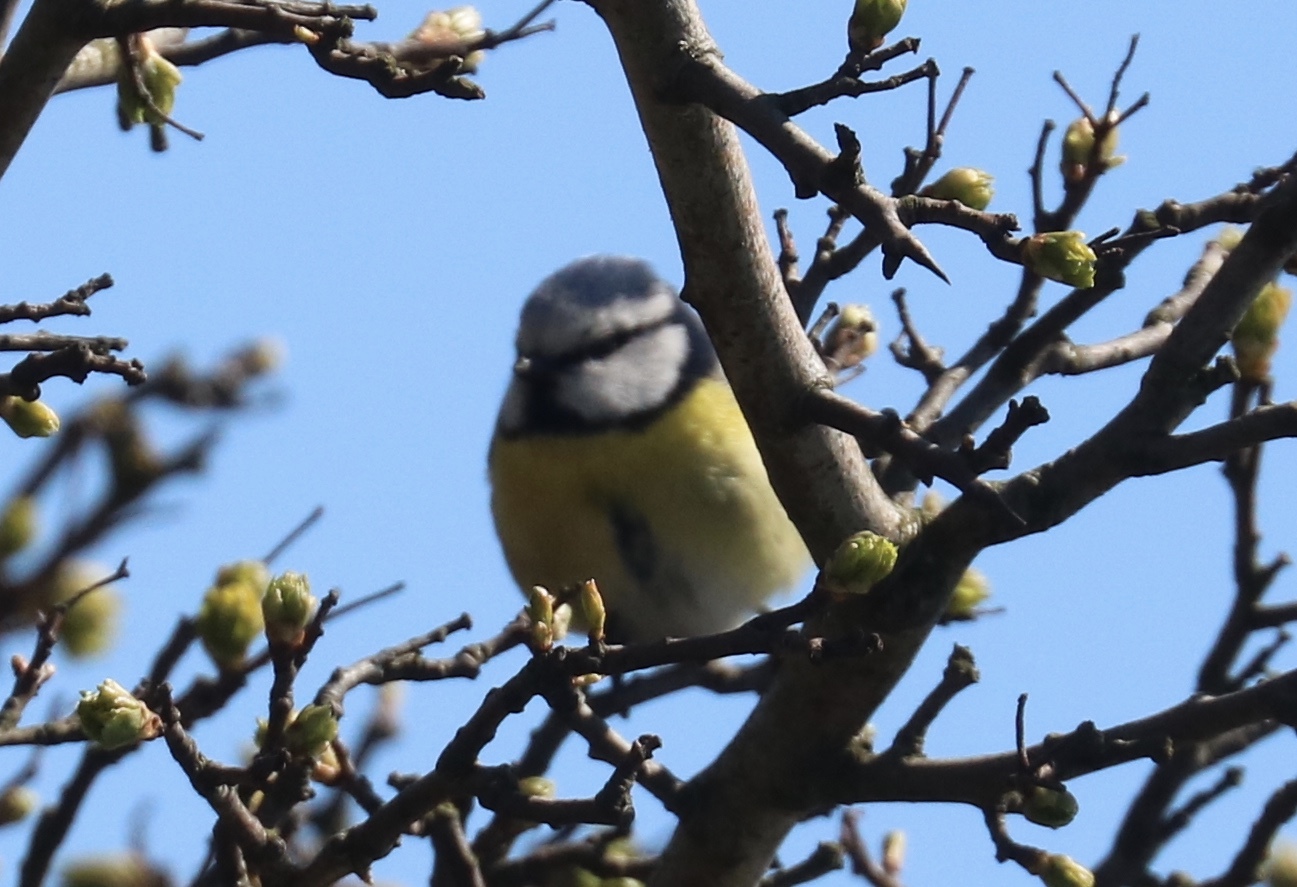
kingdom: Animalia
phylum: Chordata
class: Aves
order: Passeriformes
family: Paridae
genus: Cyanistes
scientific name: Cyanistes caeruleus
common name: Eurasian blue tit
